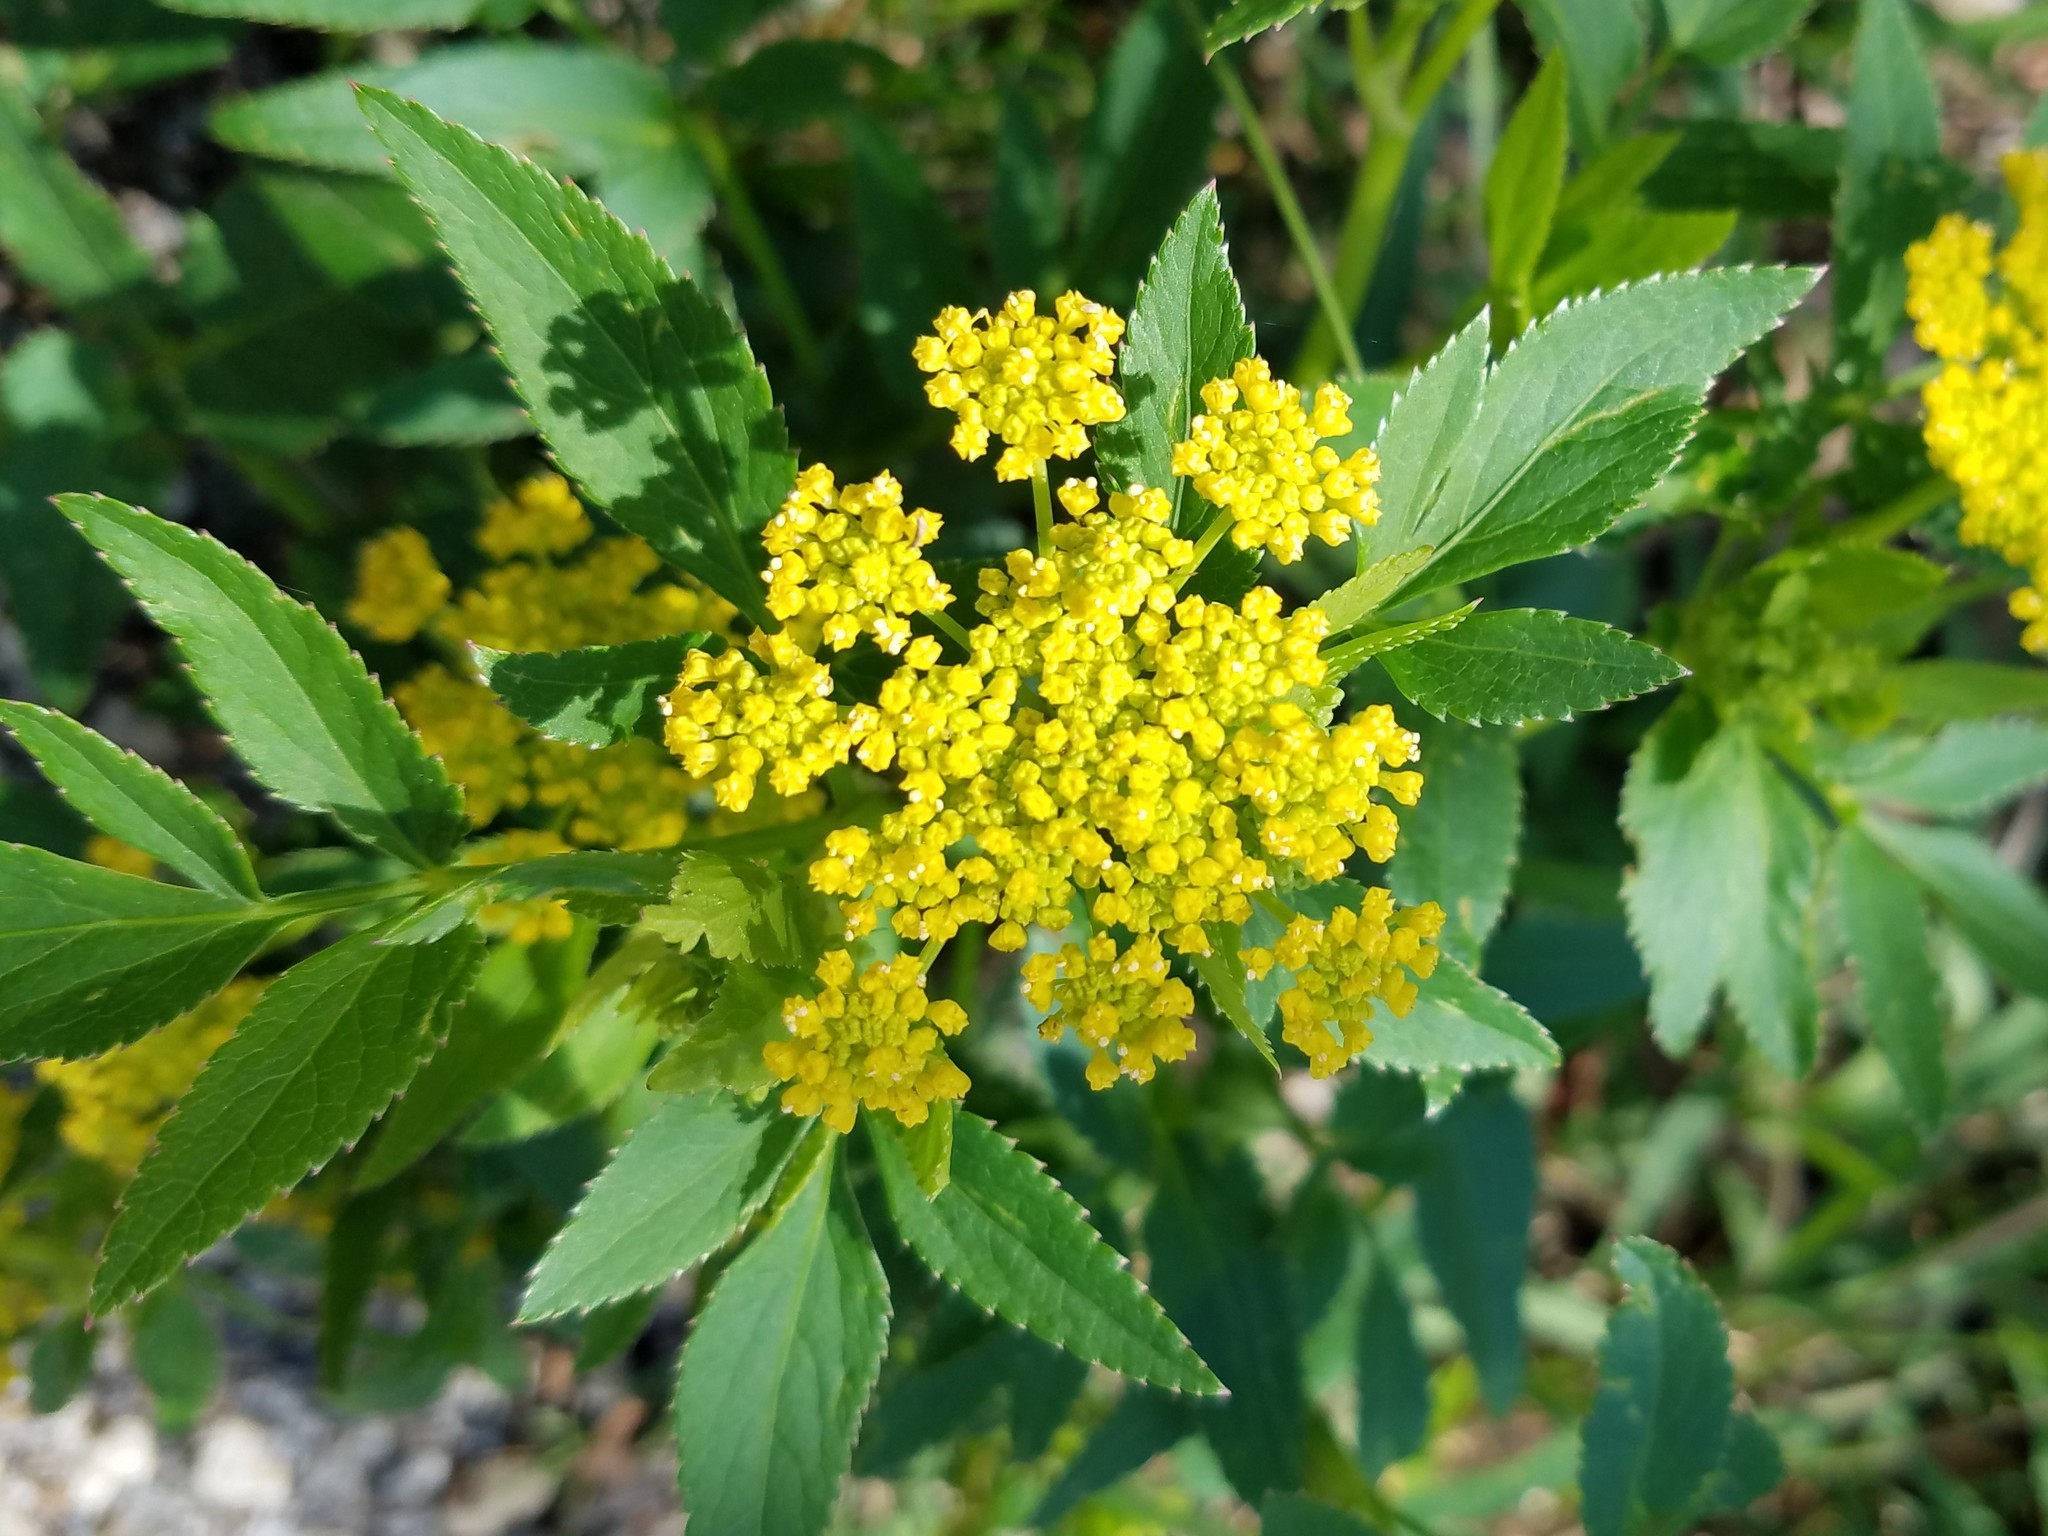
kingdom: Plantae
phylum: Tracheophyta
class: Magnoliopsida
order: Apiales
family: Apiaceae
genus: Zizia
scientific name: Zizia aurea
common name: Golden alexanders
